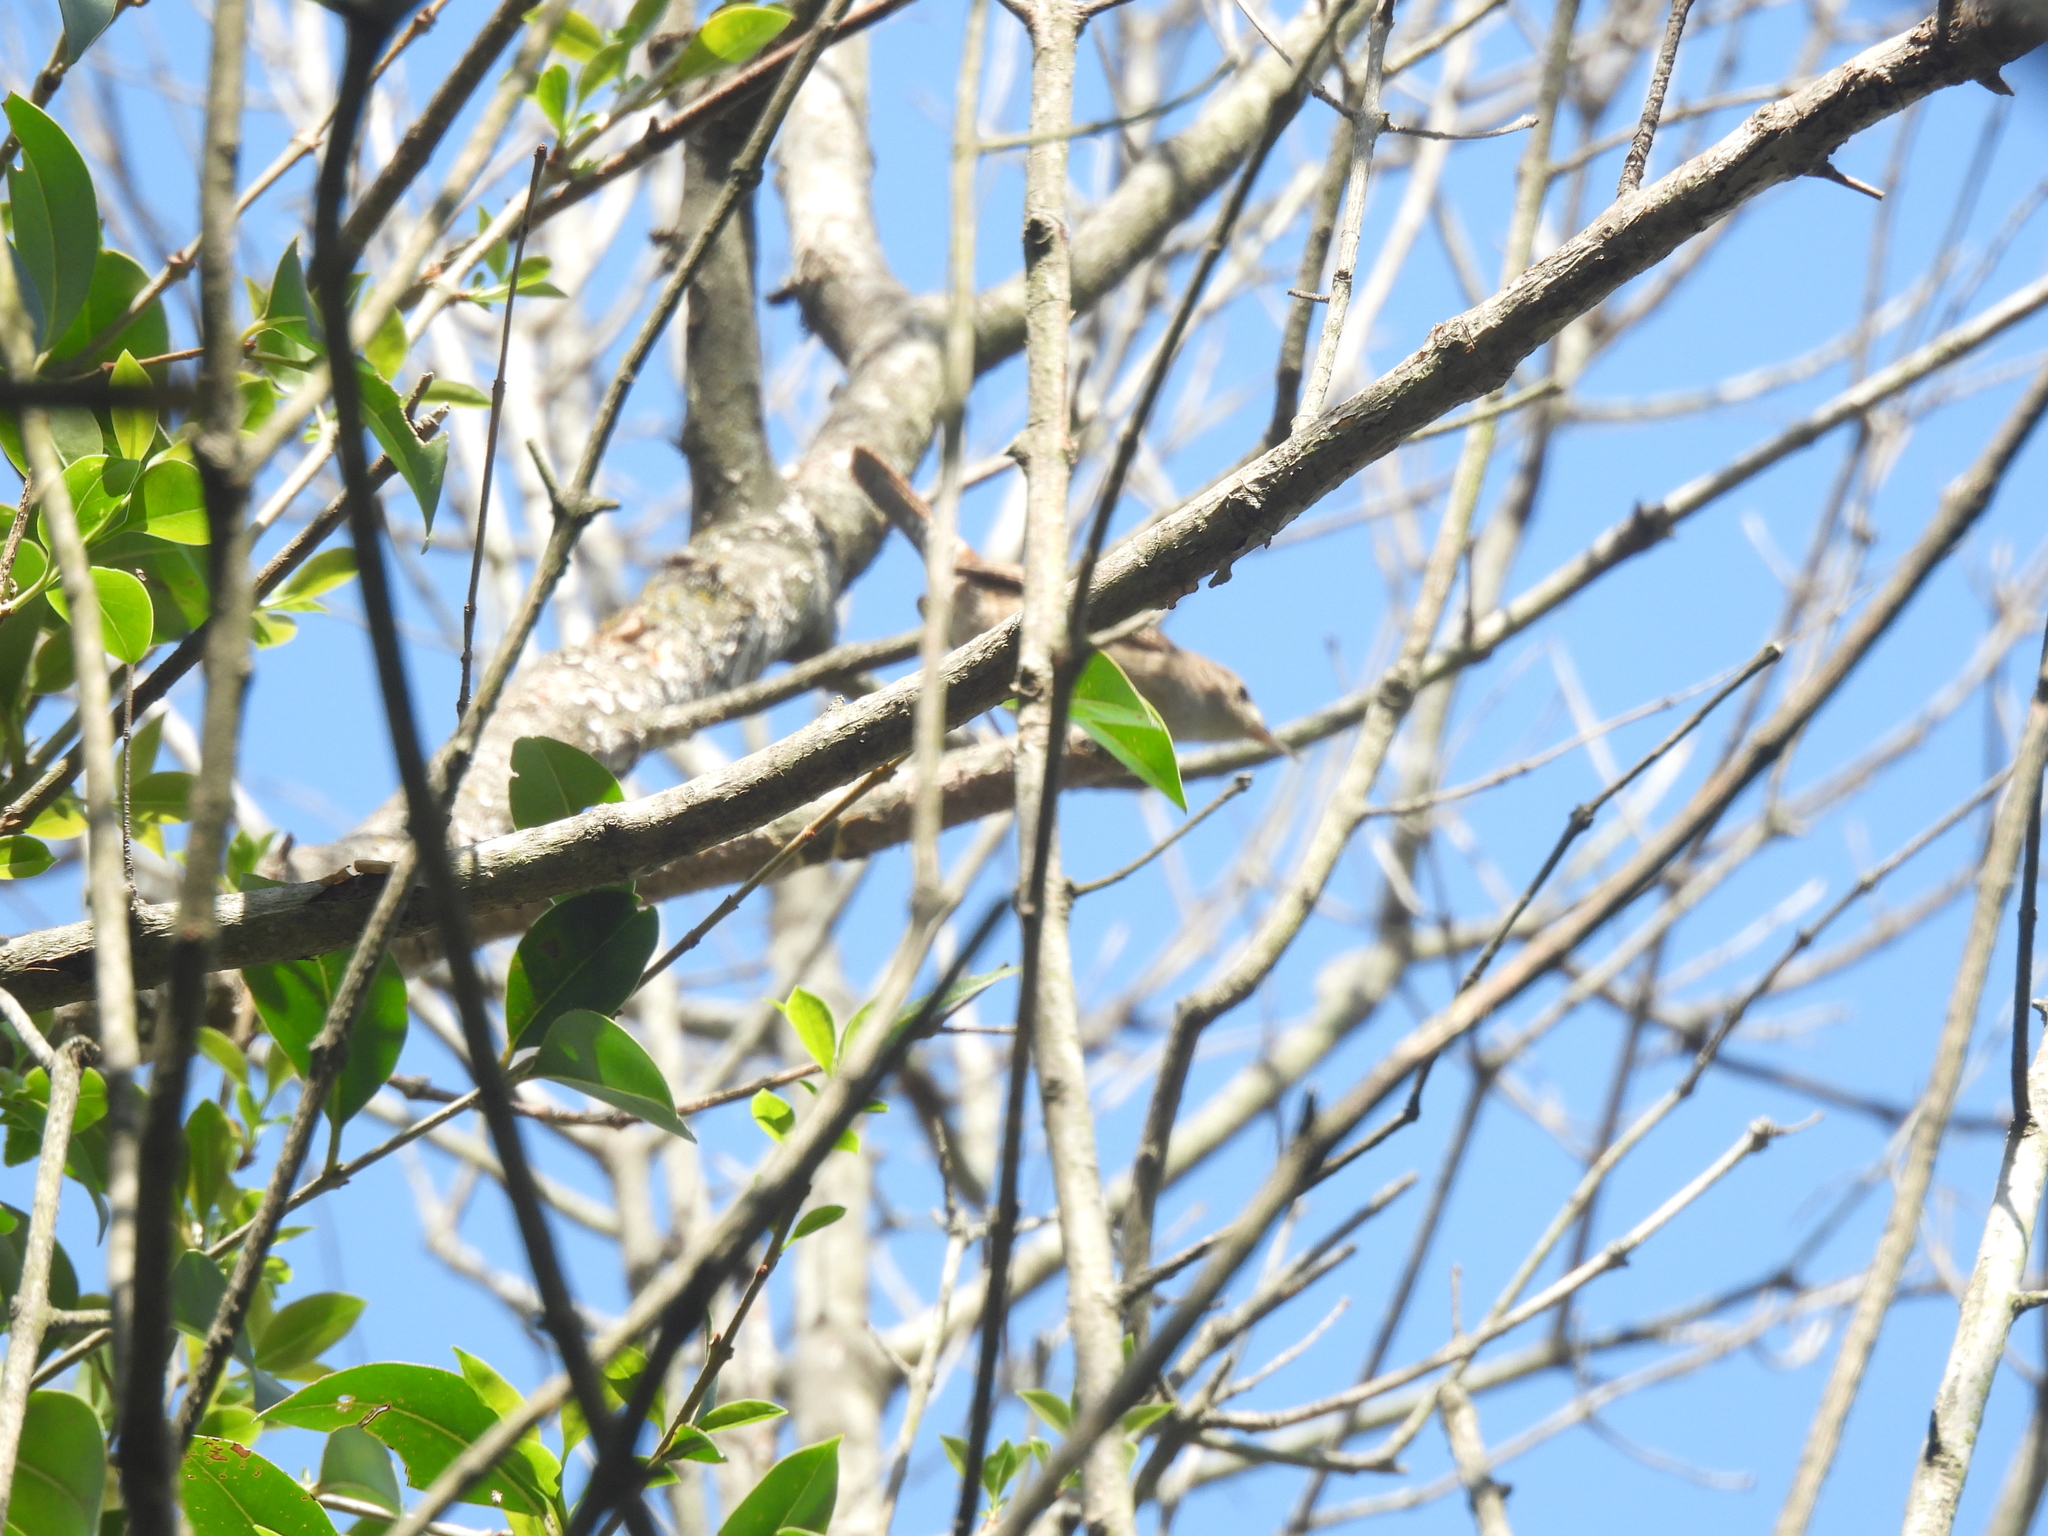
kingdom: Animalia
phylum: Chordata
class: Aves
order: Passeriformes
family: Troglodytidae
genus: Troglodytes
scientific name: Troglodytes aedon
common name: House wren
